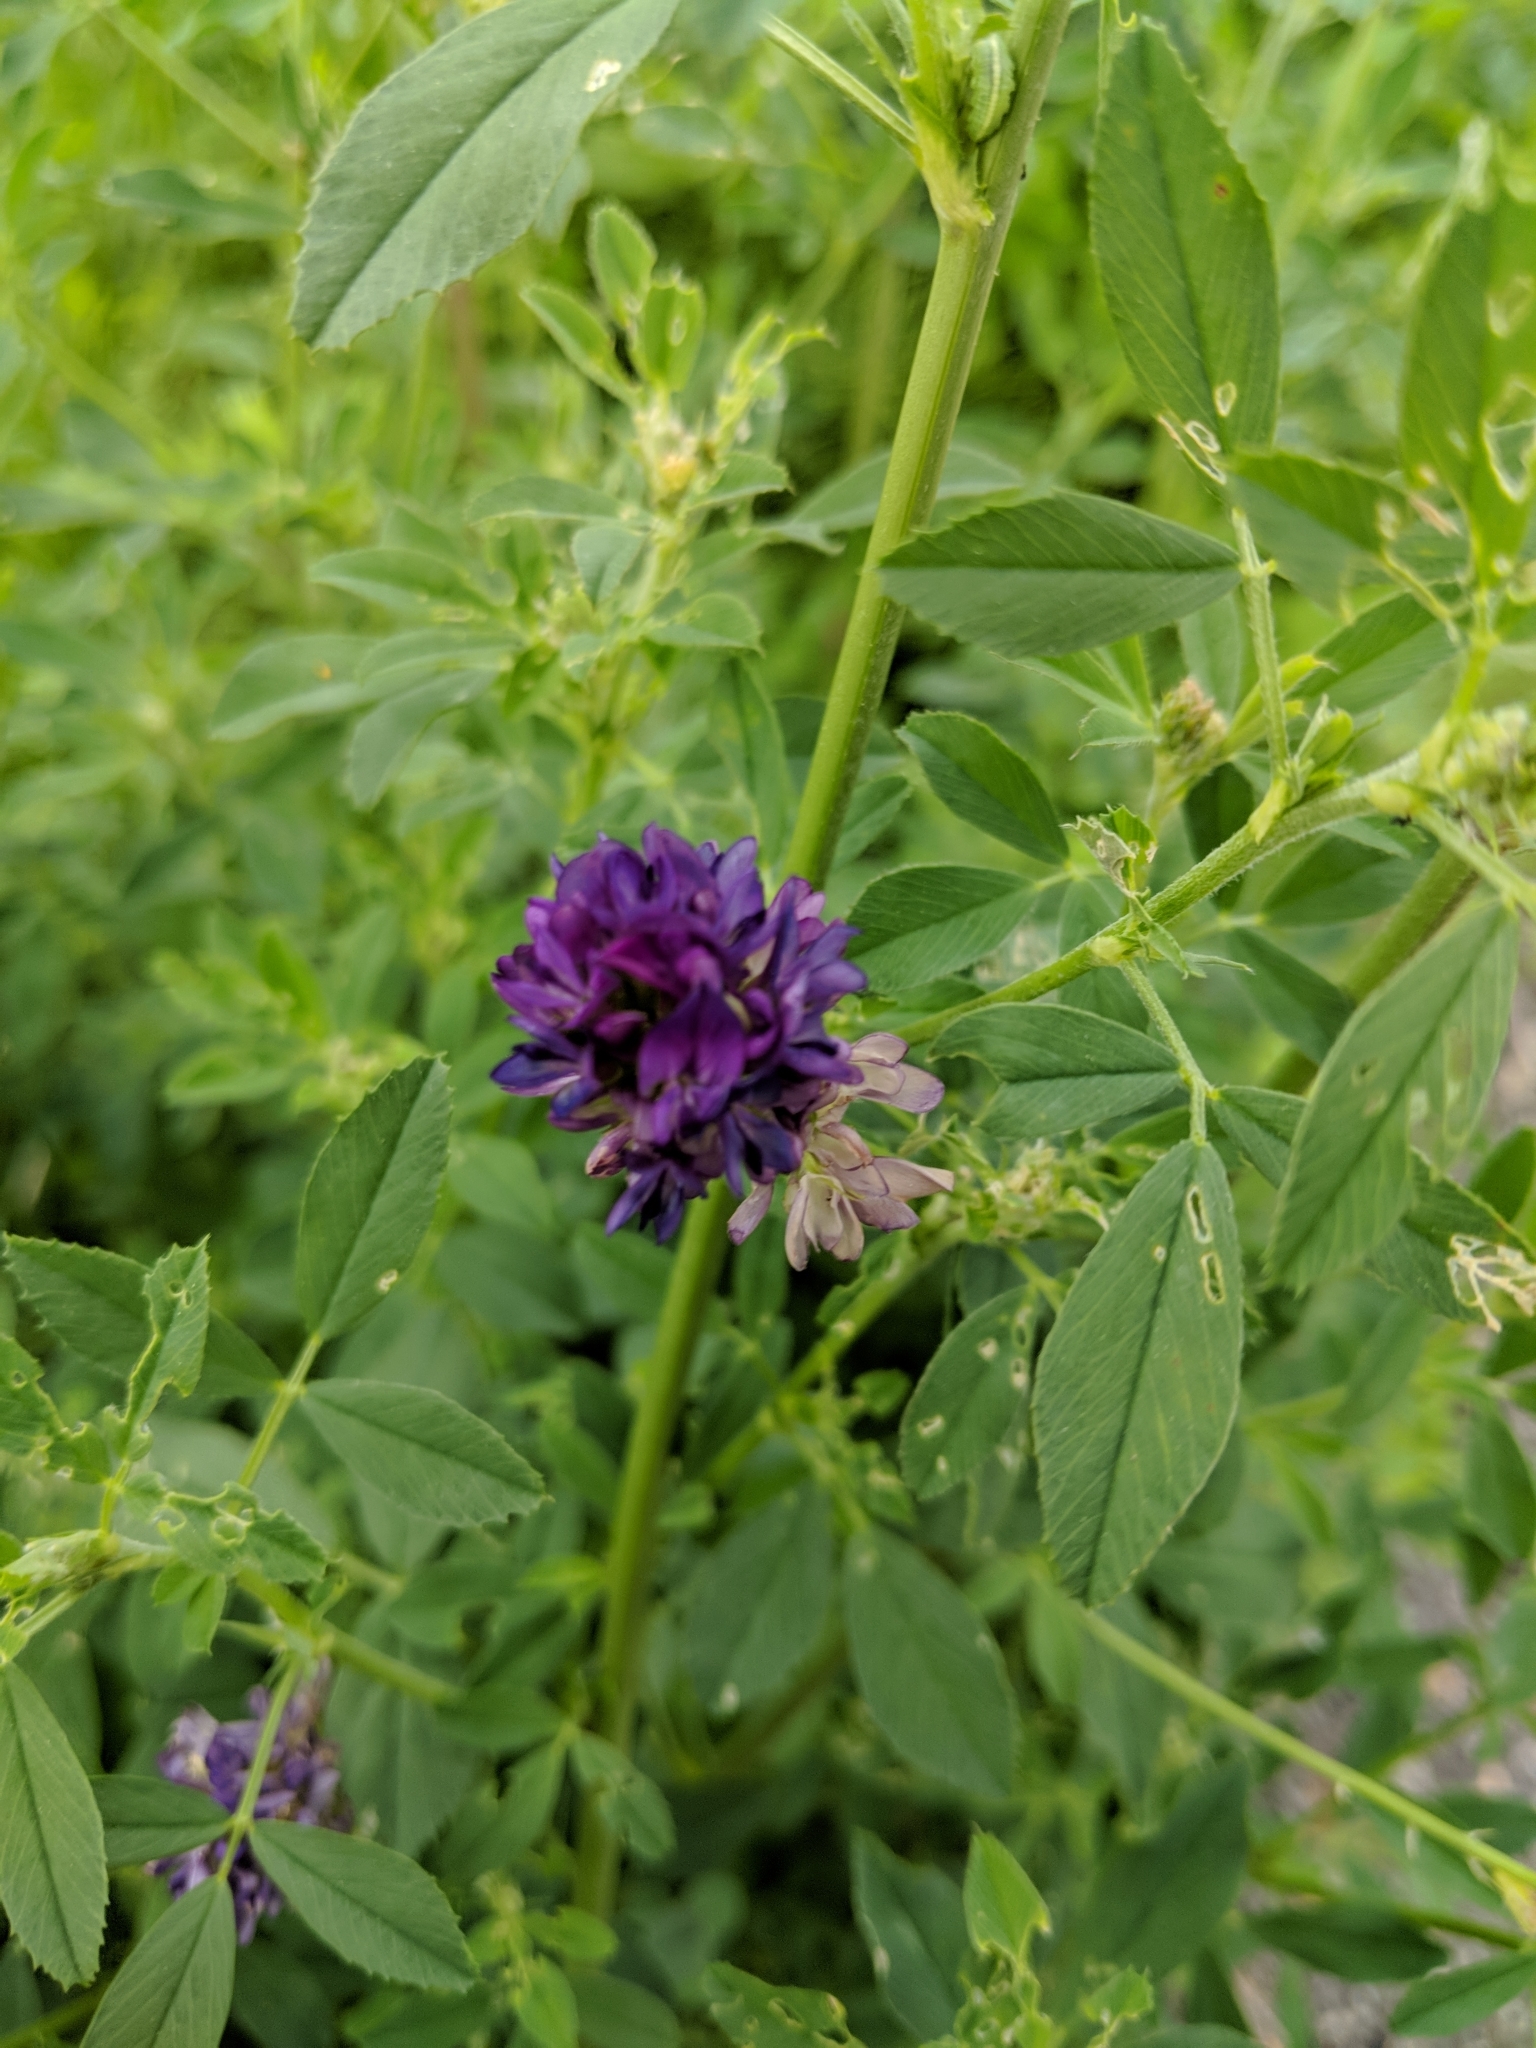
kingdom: Plantae
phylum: Tracheophyta
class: Magnoliopsida
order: Fabales
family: Fabaceae
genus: Medicago
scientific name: Medicago sativa
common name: Alfalfa
